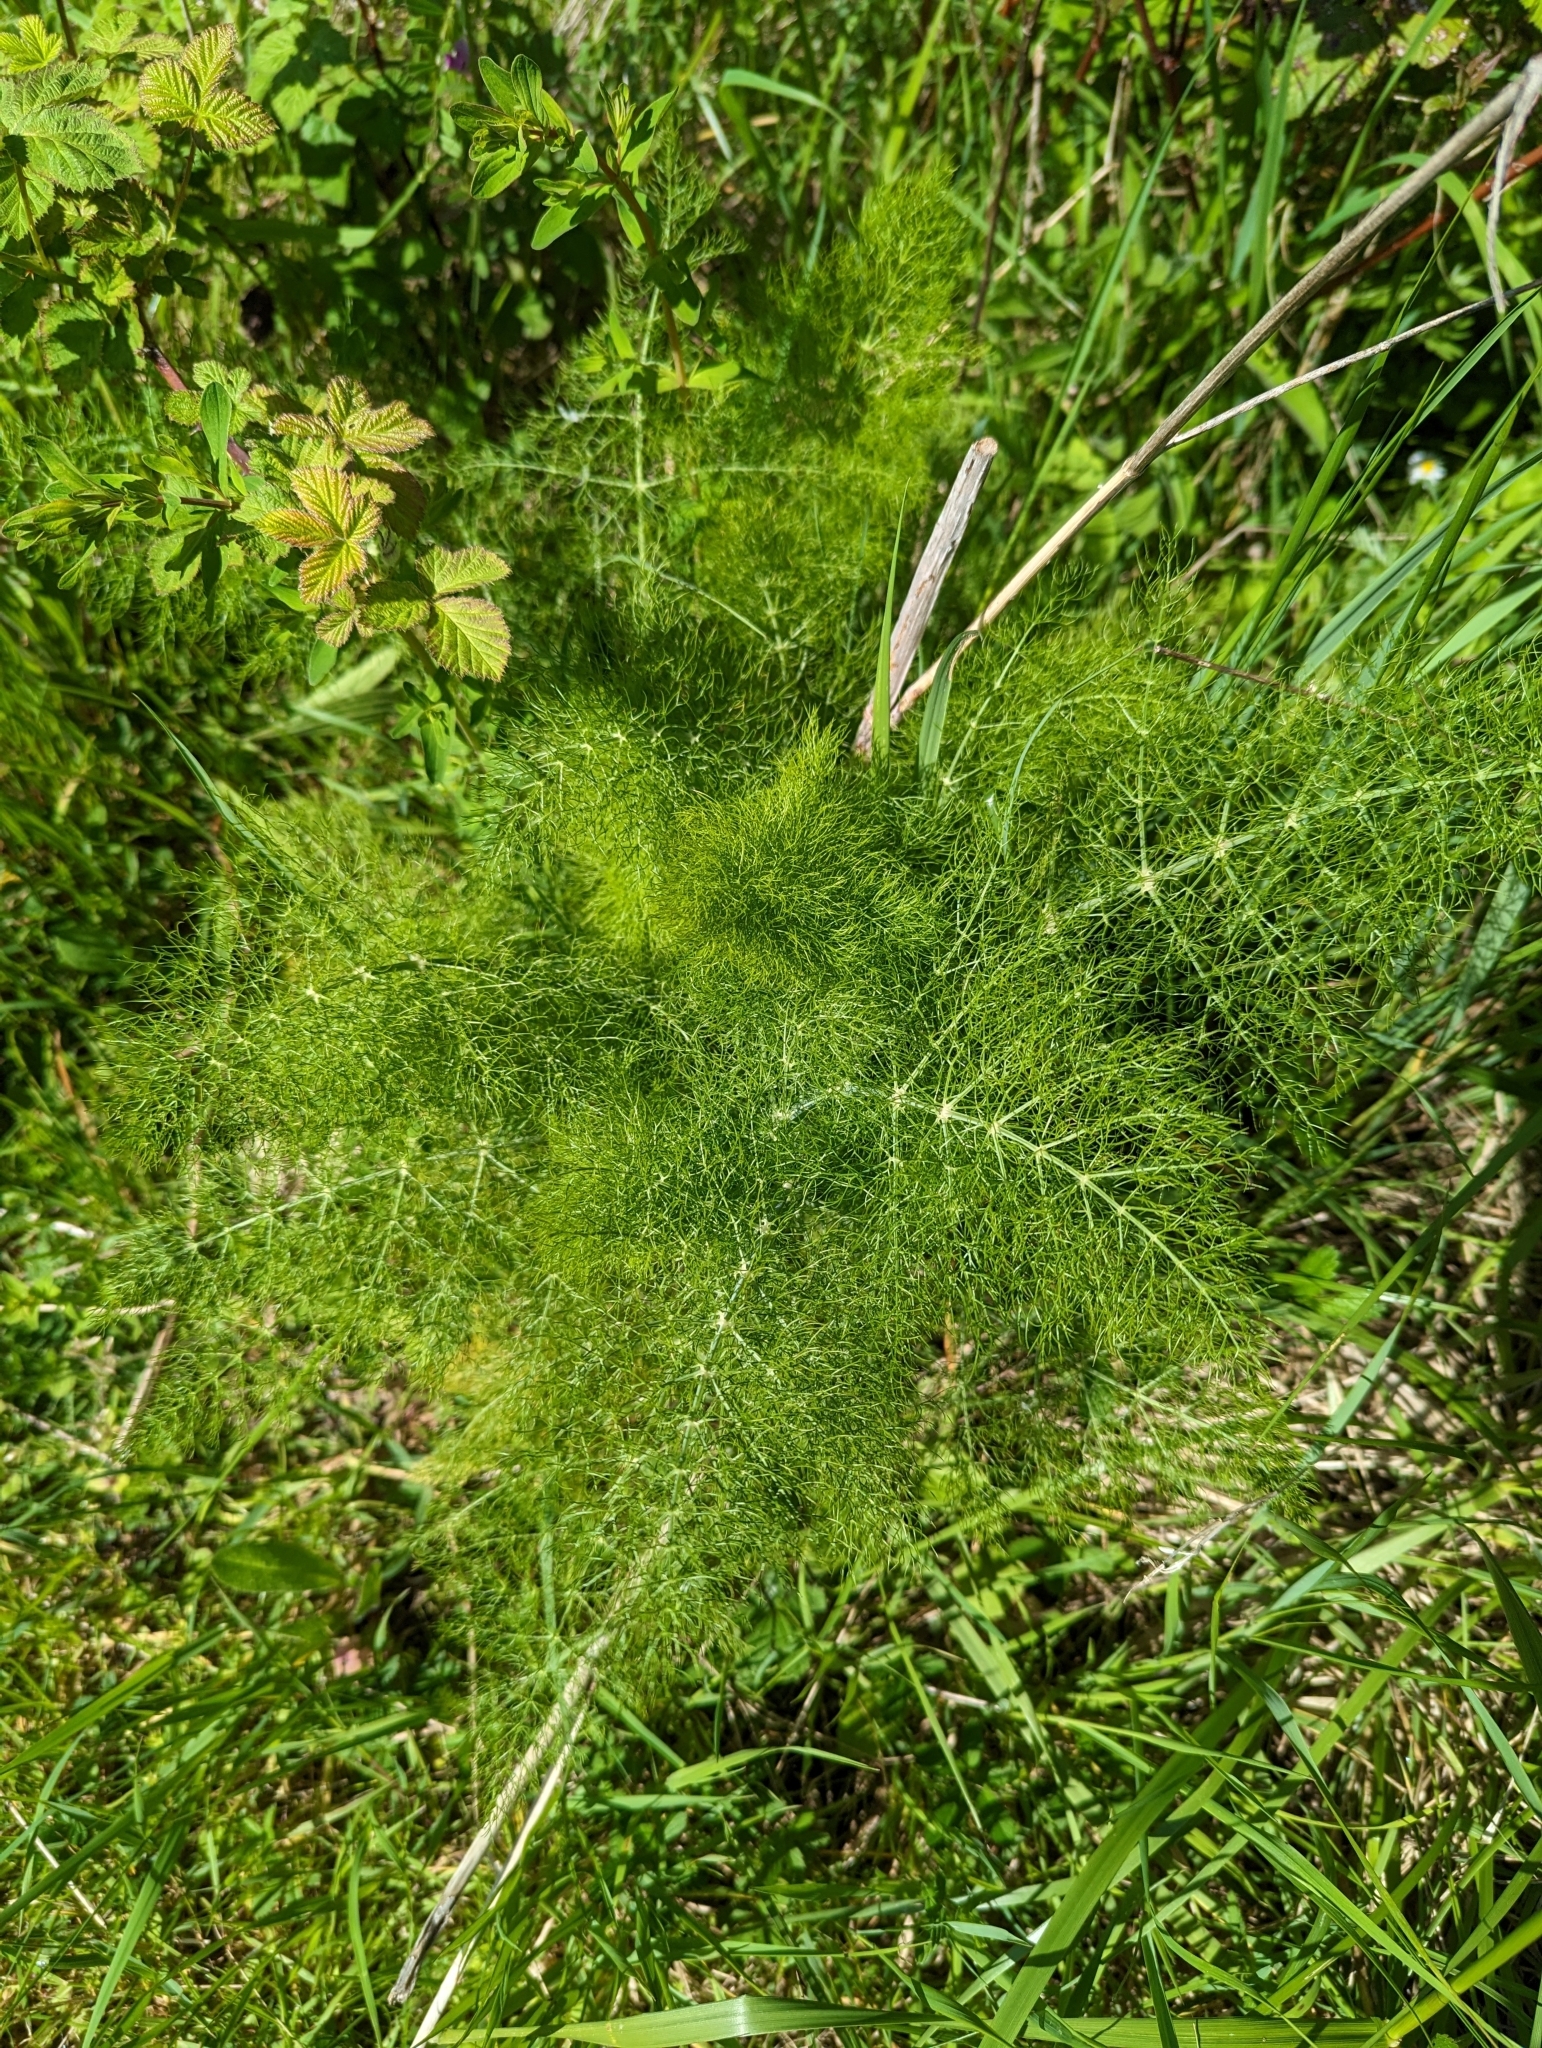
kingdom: Plantae
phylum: Tracheophyta
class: Magnoliopsida
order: Apiales
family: Apiaceae
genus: Foeniculum
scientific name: Foeniculum vulgare
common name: Fennel
